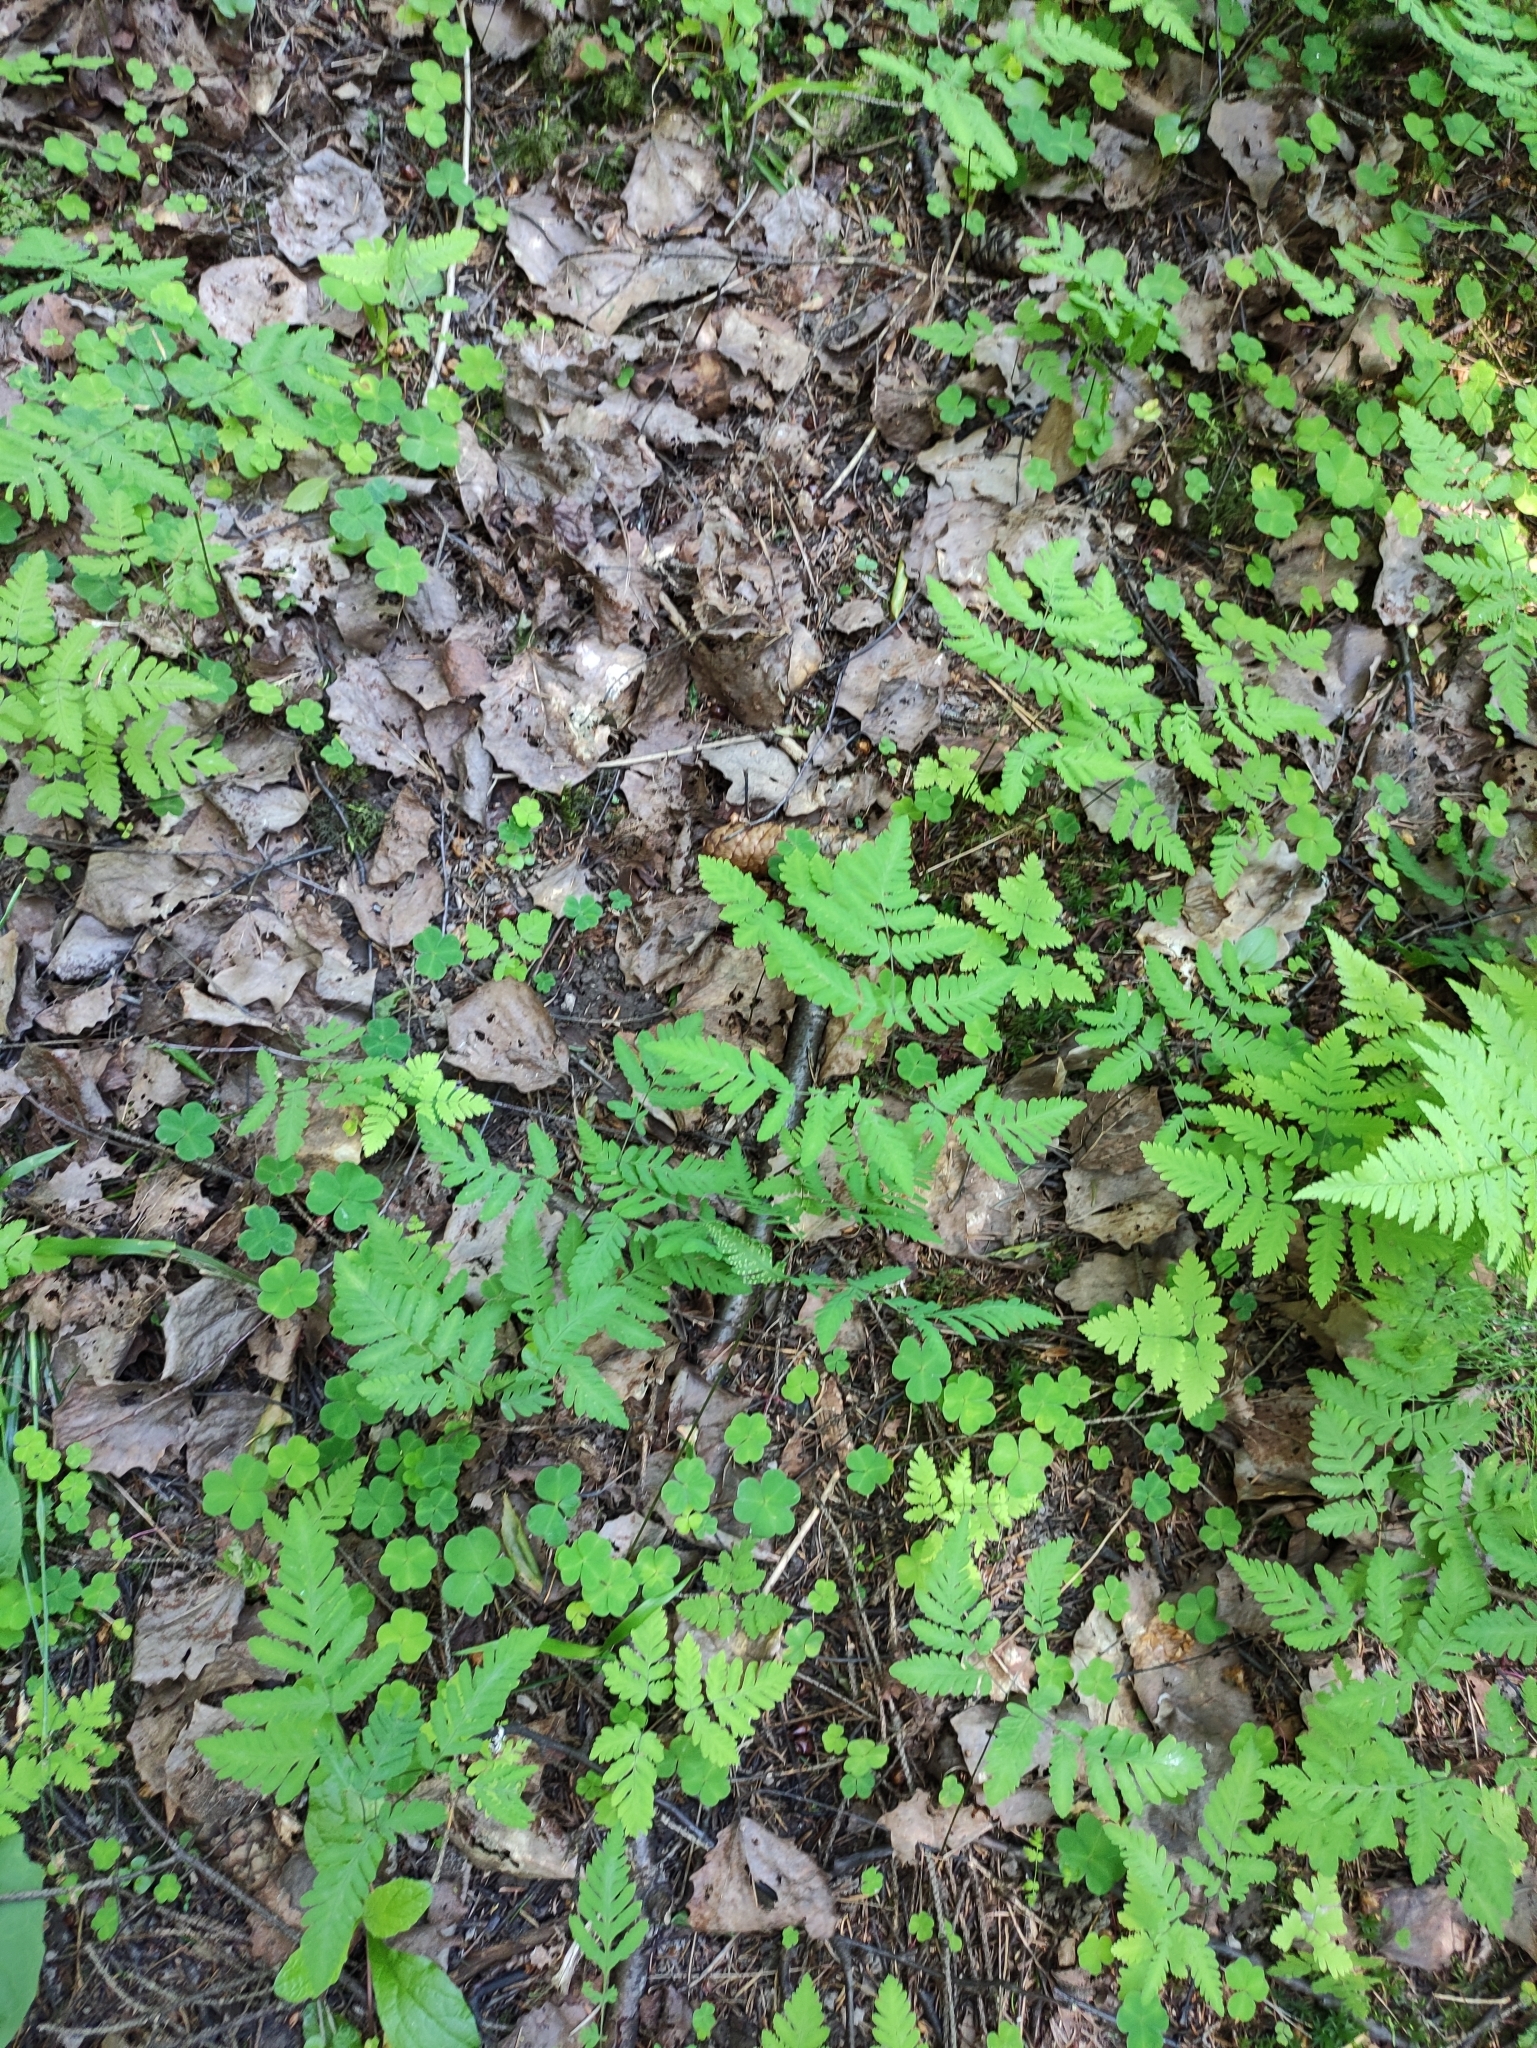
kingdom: Plantae
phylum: Tracheophyta
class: Polypodiopsida
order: Polypodiales
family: Cystopteridaceae
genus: Gymnocarpium
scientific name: Gymnocarpium dryopteris
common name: Oak fern
